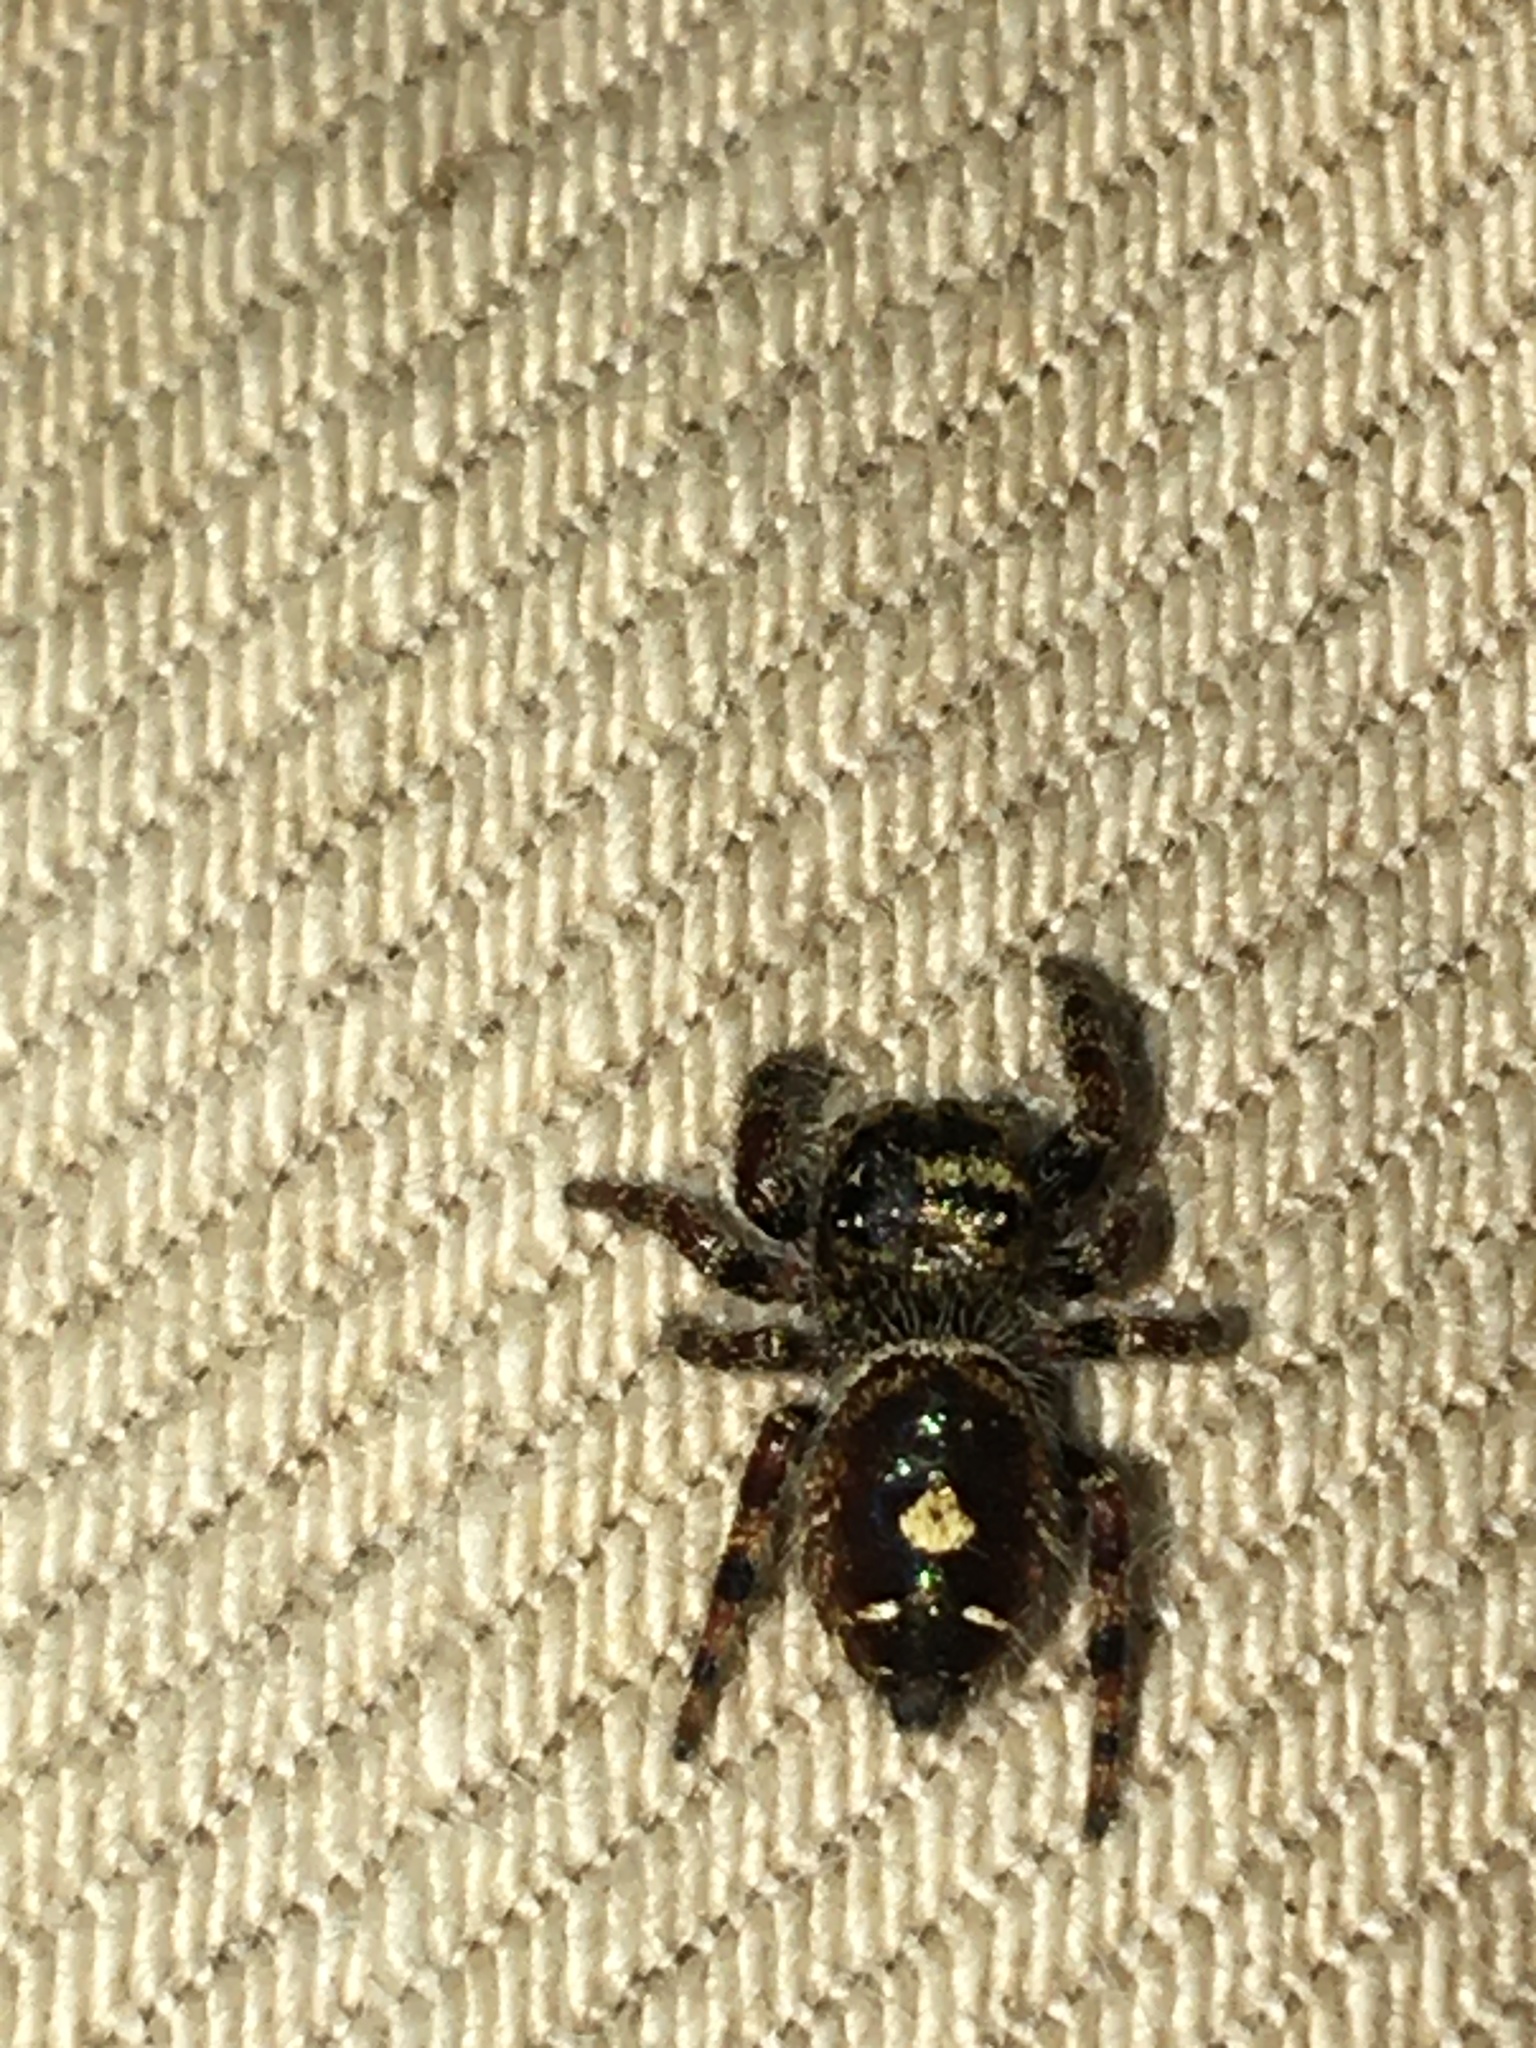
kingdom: Animalia
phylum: Arthropoda
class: Arachnida
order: Araneae
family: Salticidae
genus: Phidippus
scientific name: Phidippus audax
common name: Bold jumper
